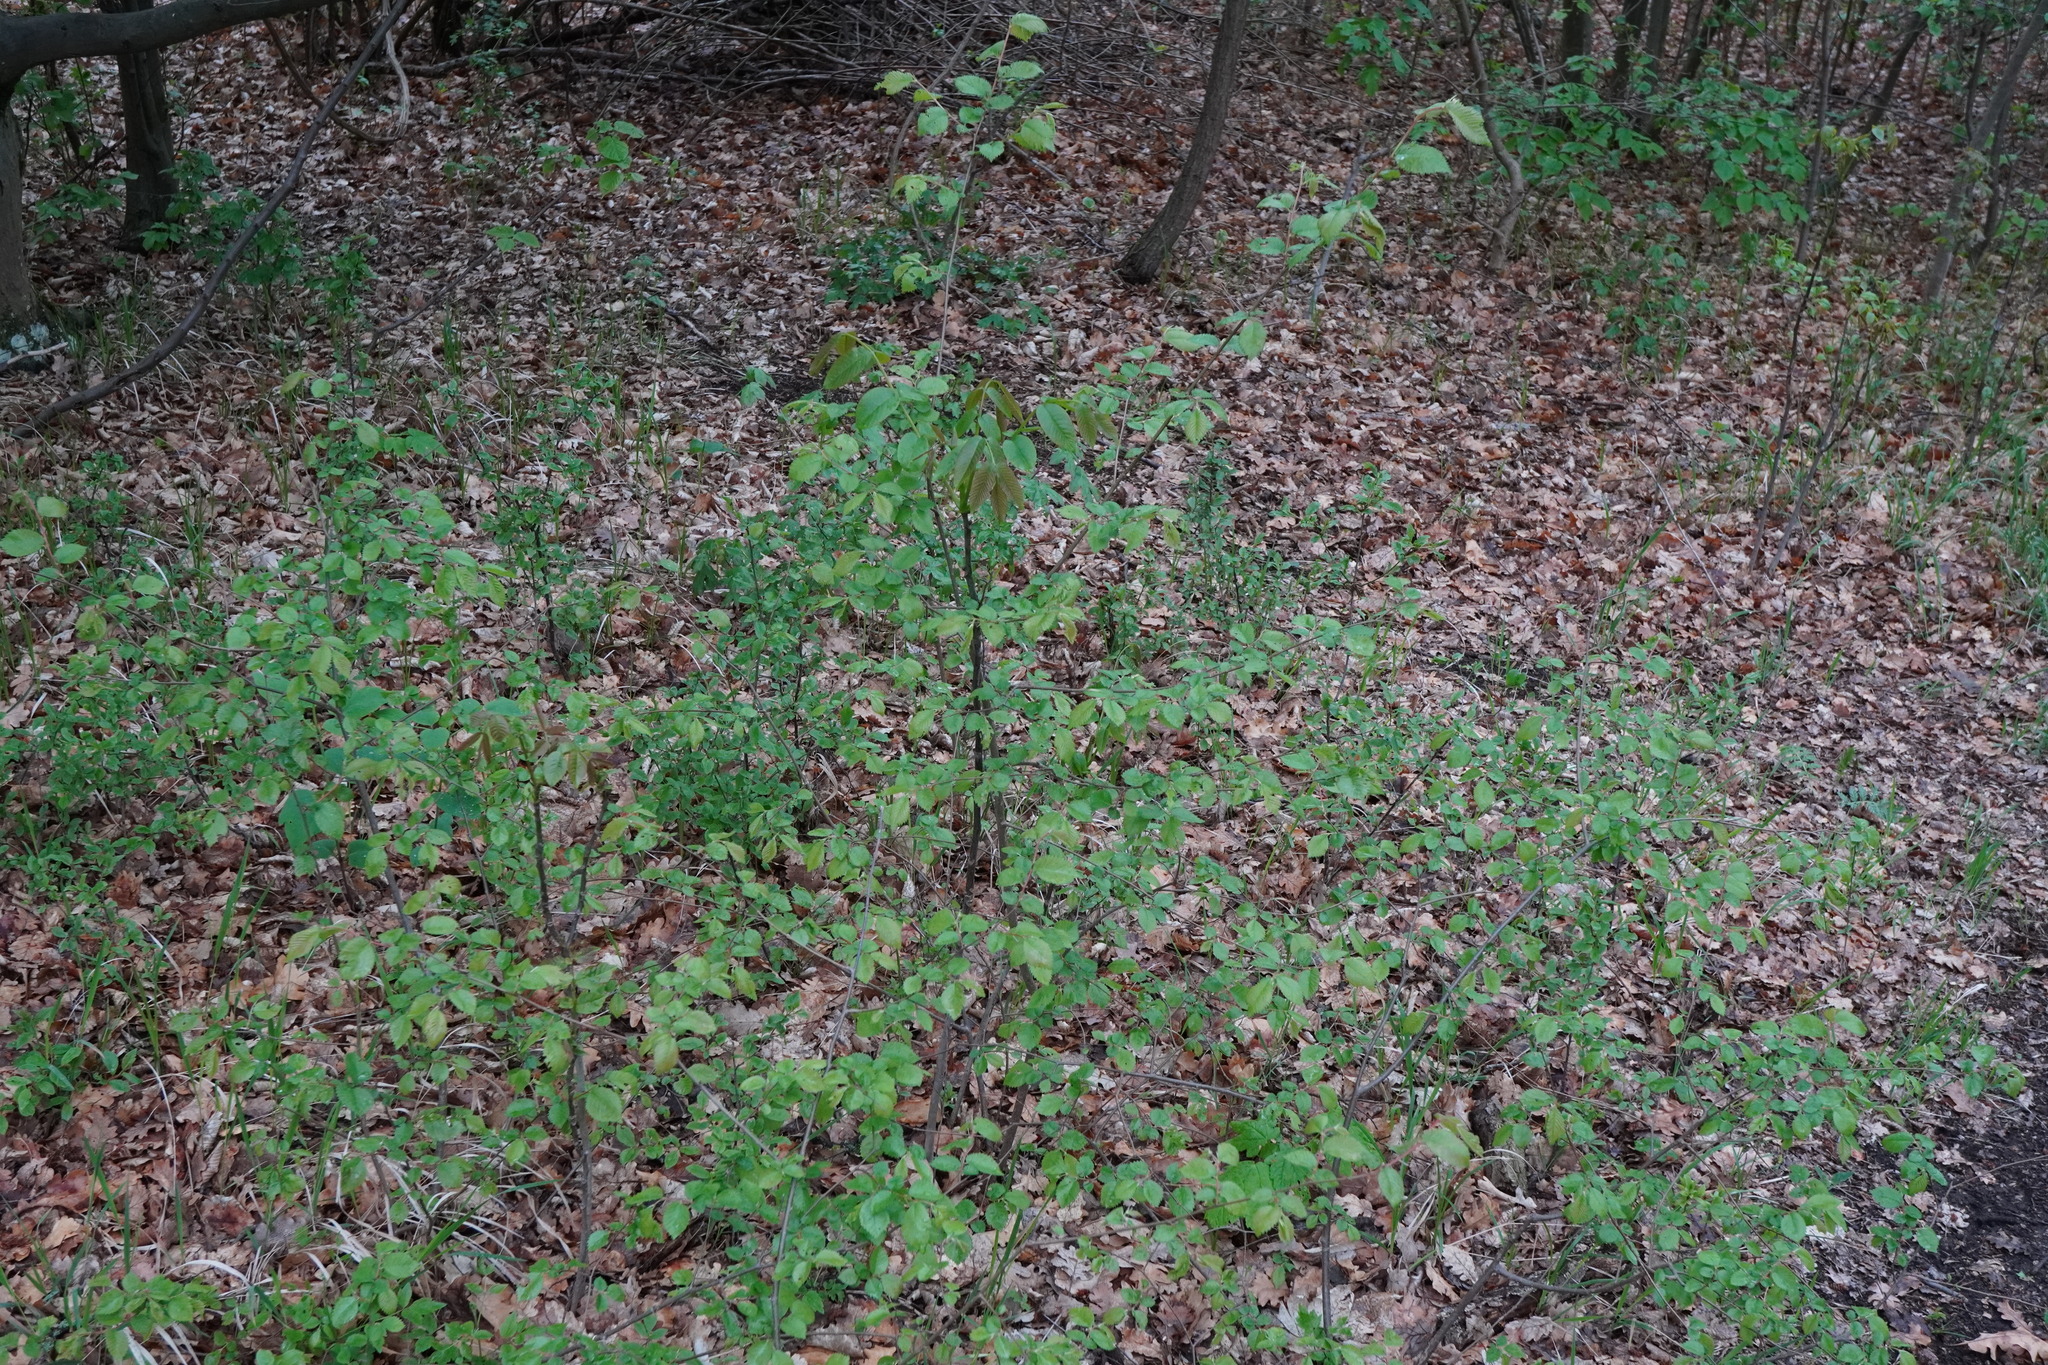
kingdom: Plantae
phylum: Tracheophyta
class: Magnoliopsida
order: Rosales
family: Ulmaceae
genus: Ulmus
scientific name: Ulmus minor
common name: Small-leaved elm
